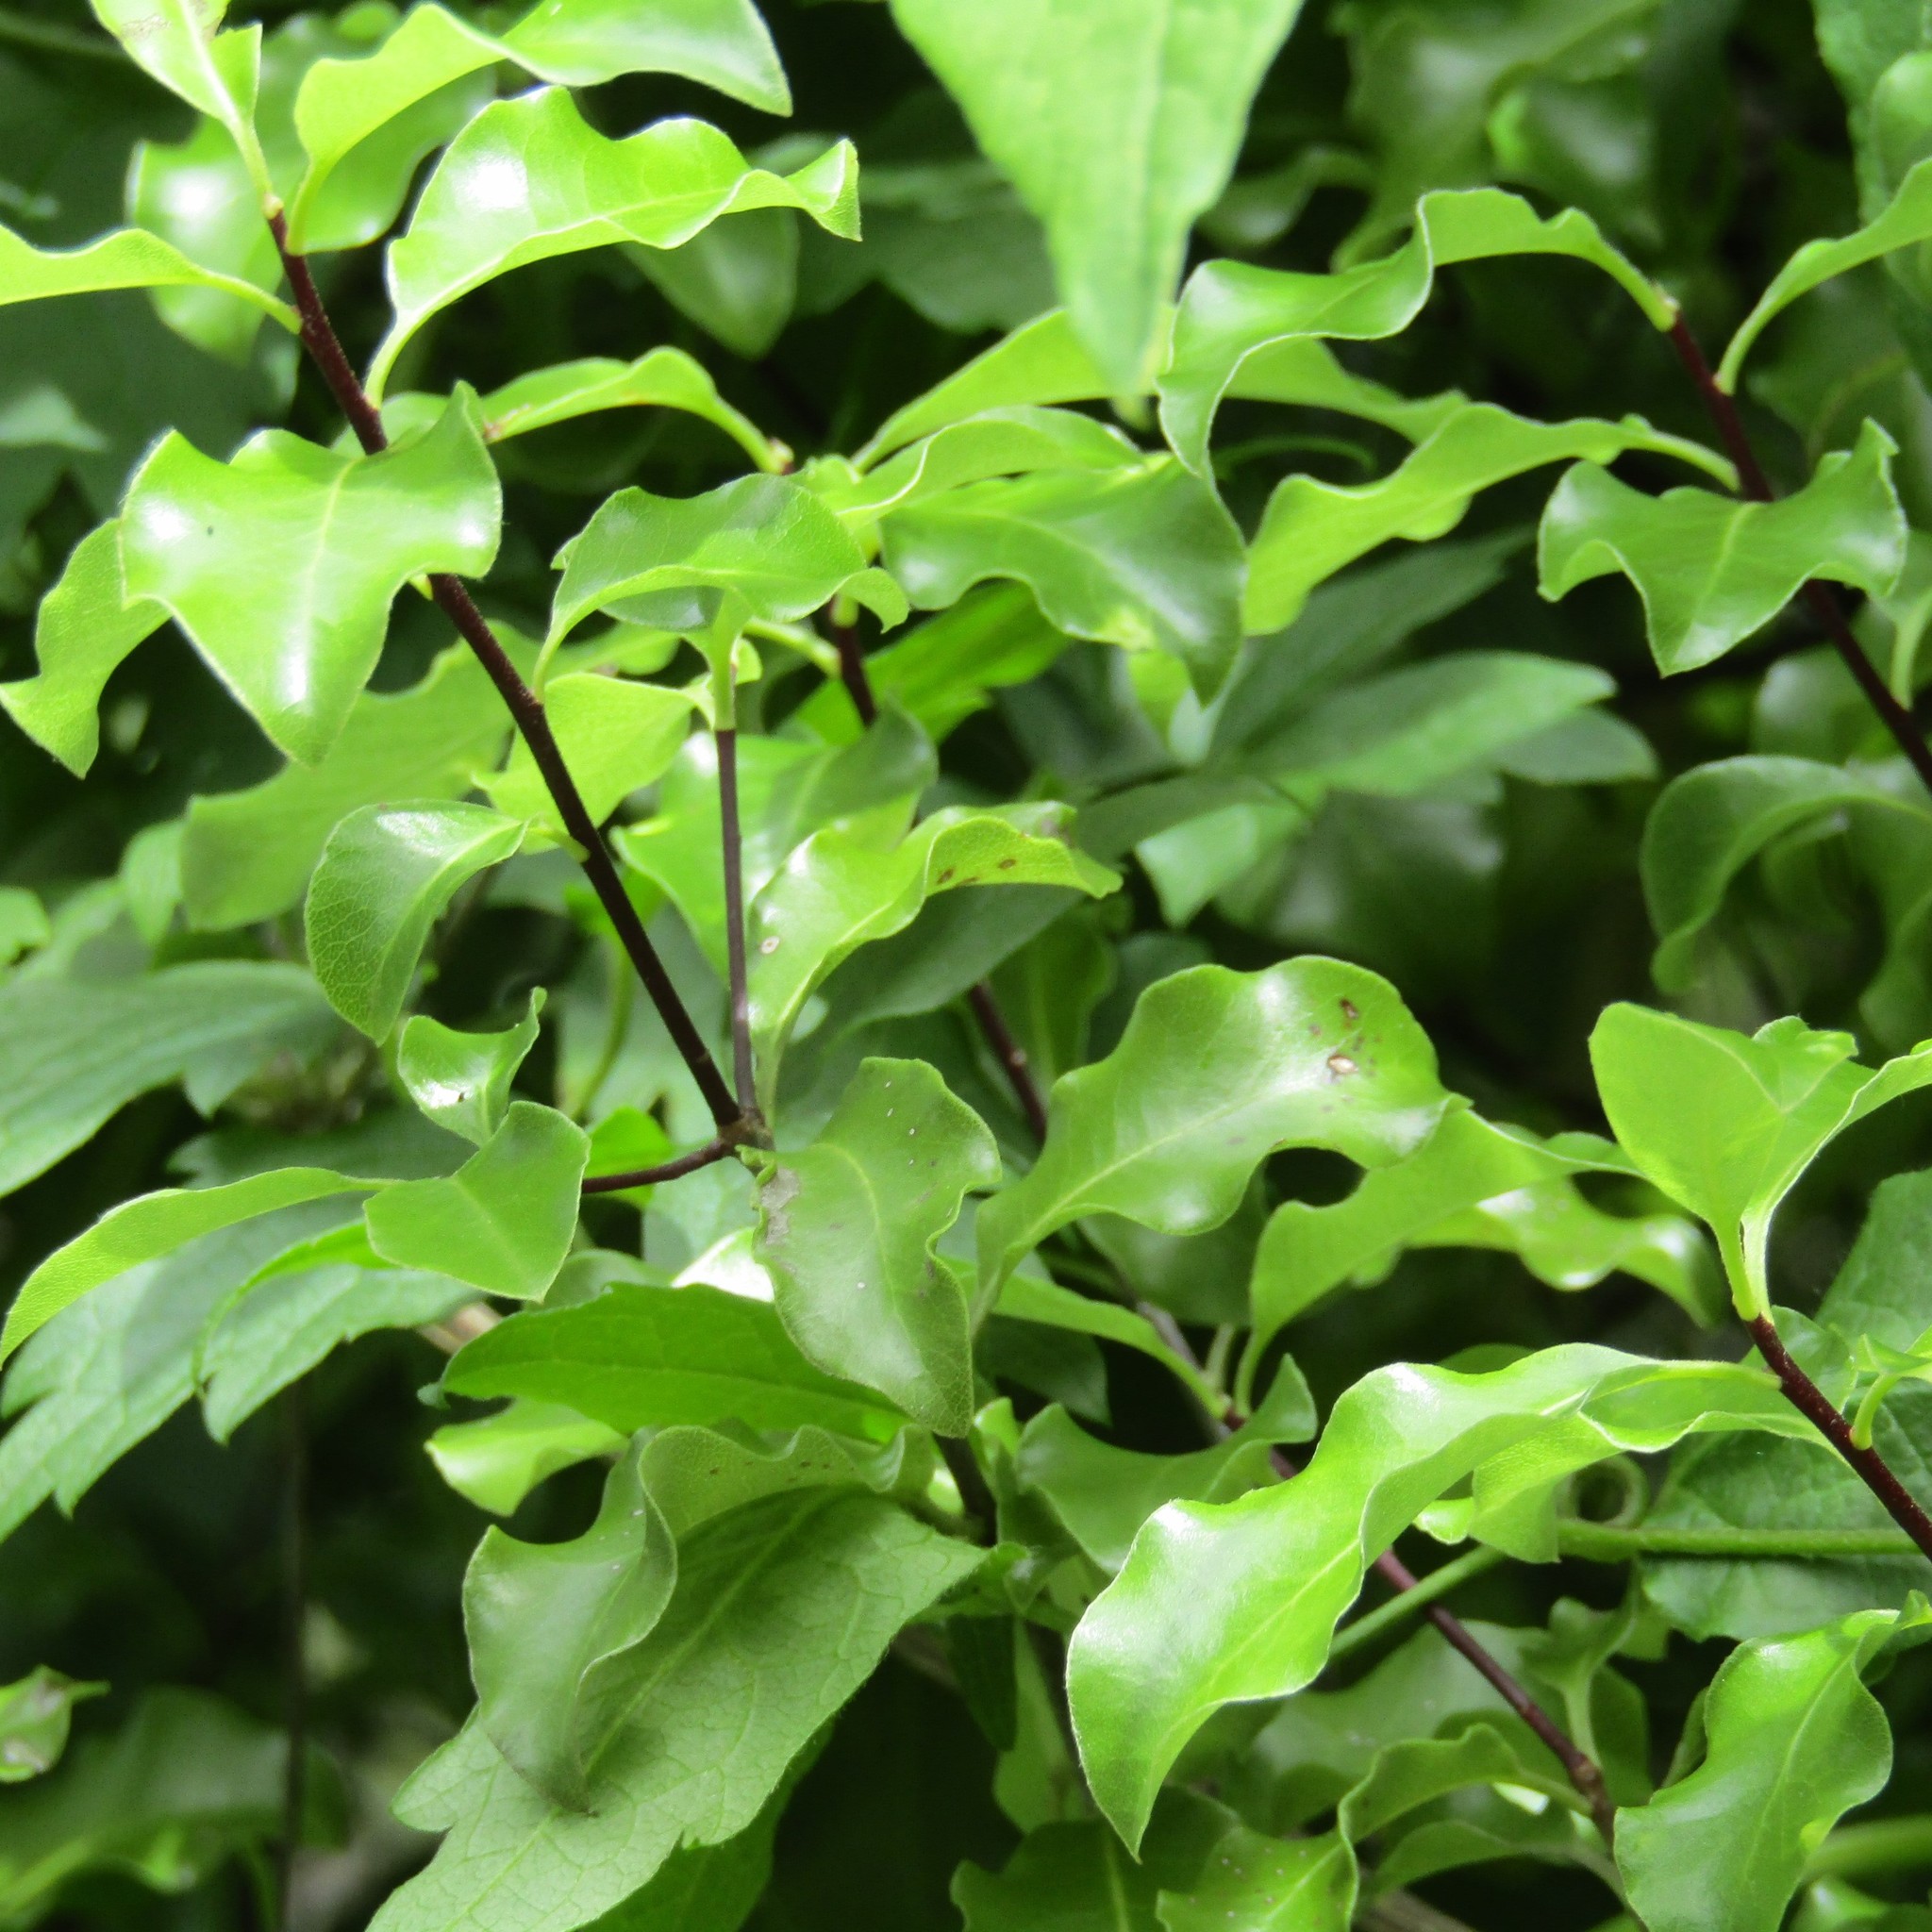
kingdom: Plantae
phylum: Tracheophyta
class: Magnoliopsida
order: Apiales
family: Pittosporaceae
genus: Pittosporum
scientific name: Pittosporum tenuifolium
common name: Kohuhu
